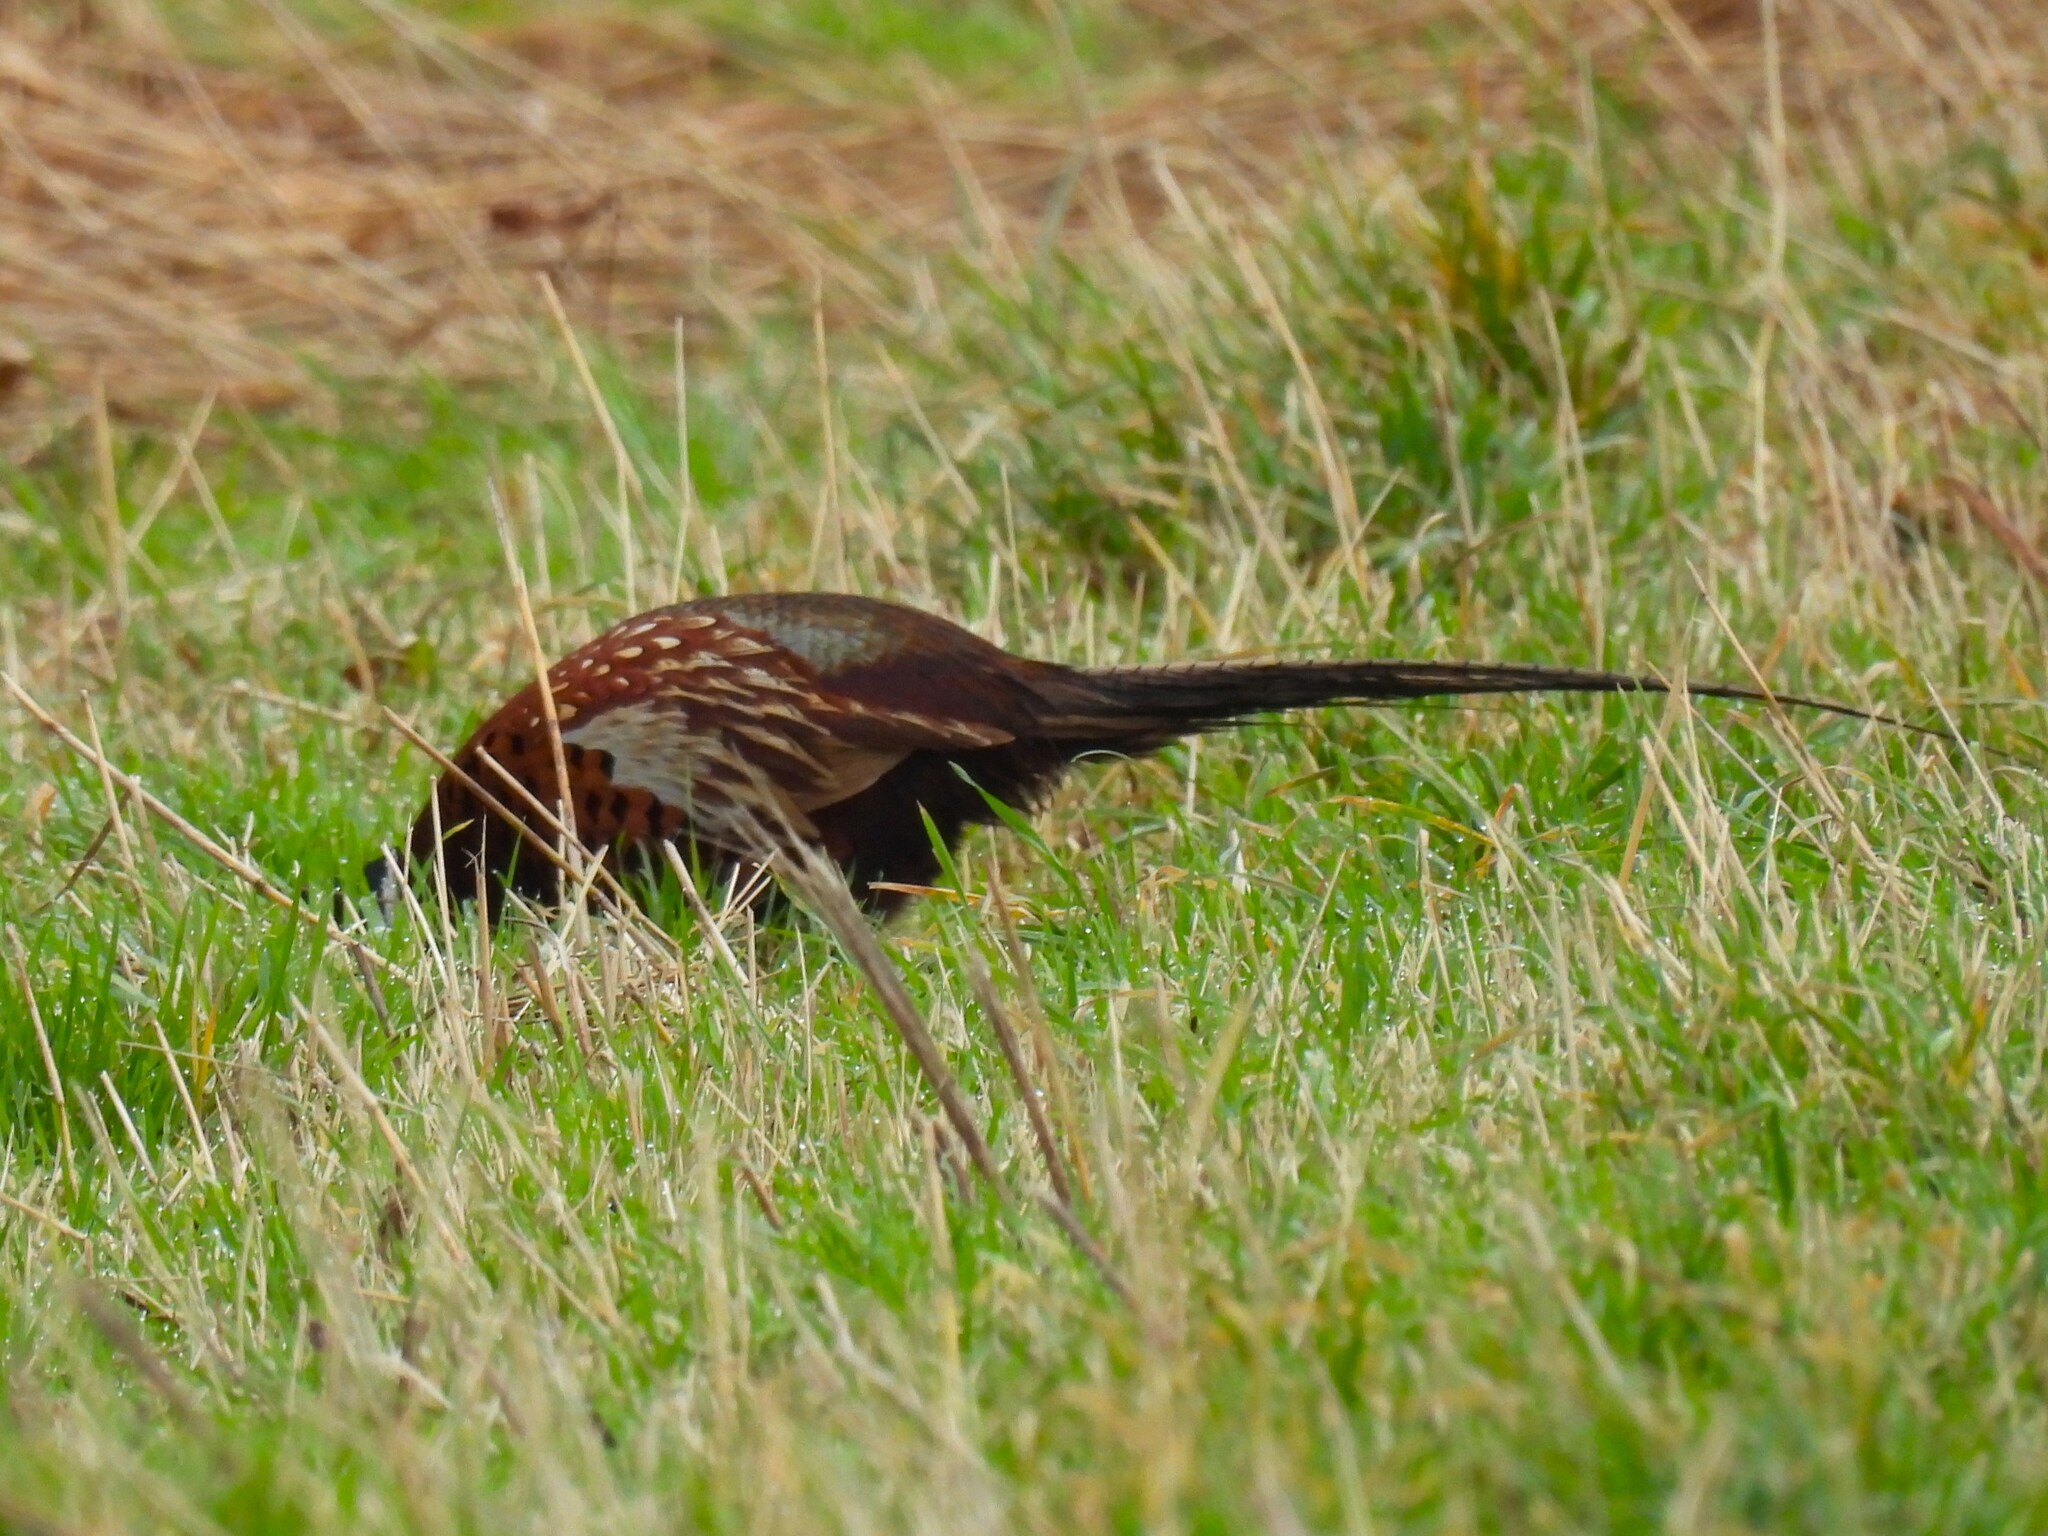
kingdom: Animalia
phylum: Chordata
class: Aves
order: Galliformes
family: Phasianidae
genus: Phasianus
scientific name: Phasianus colchicus
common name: Common pheasant
